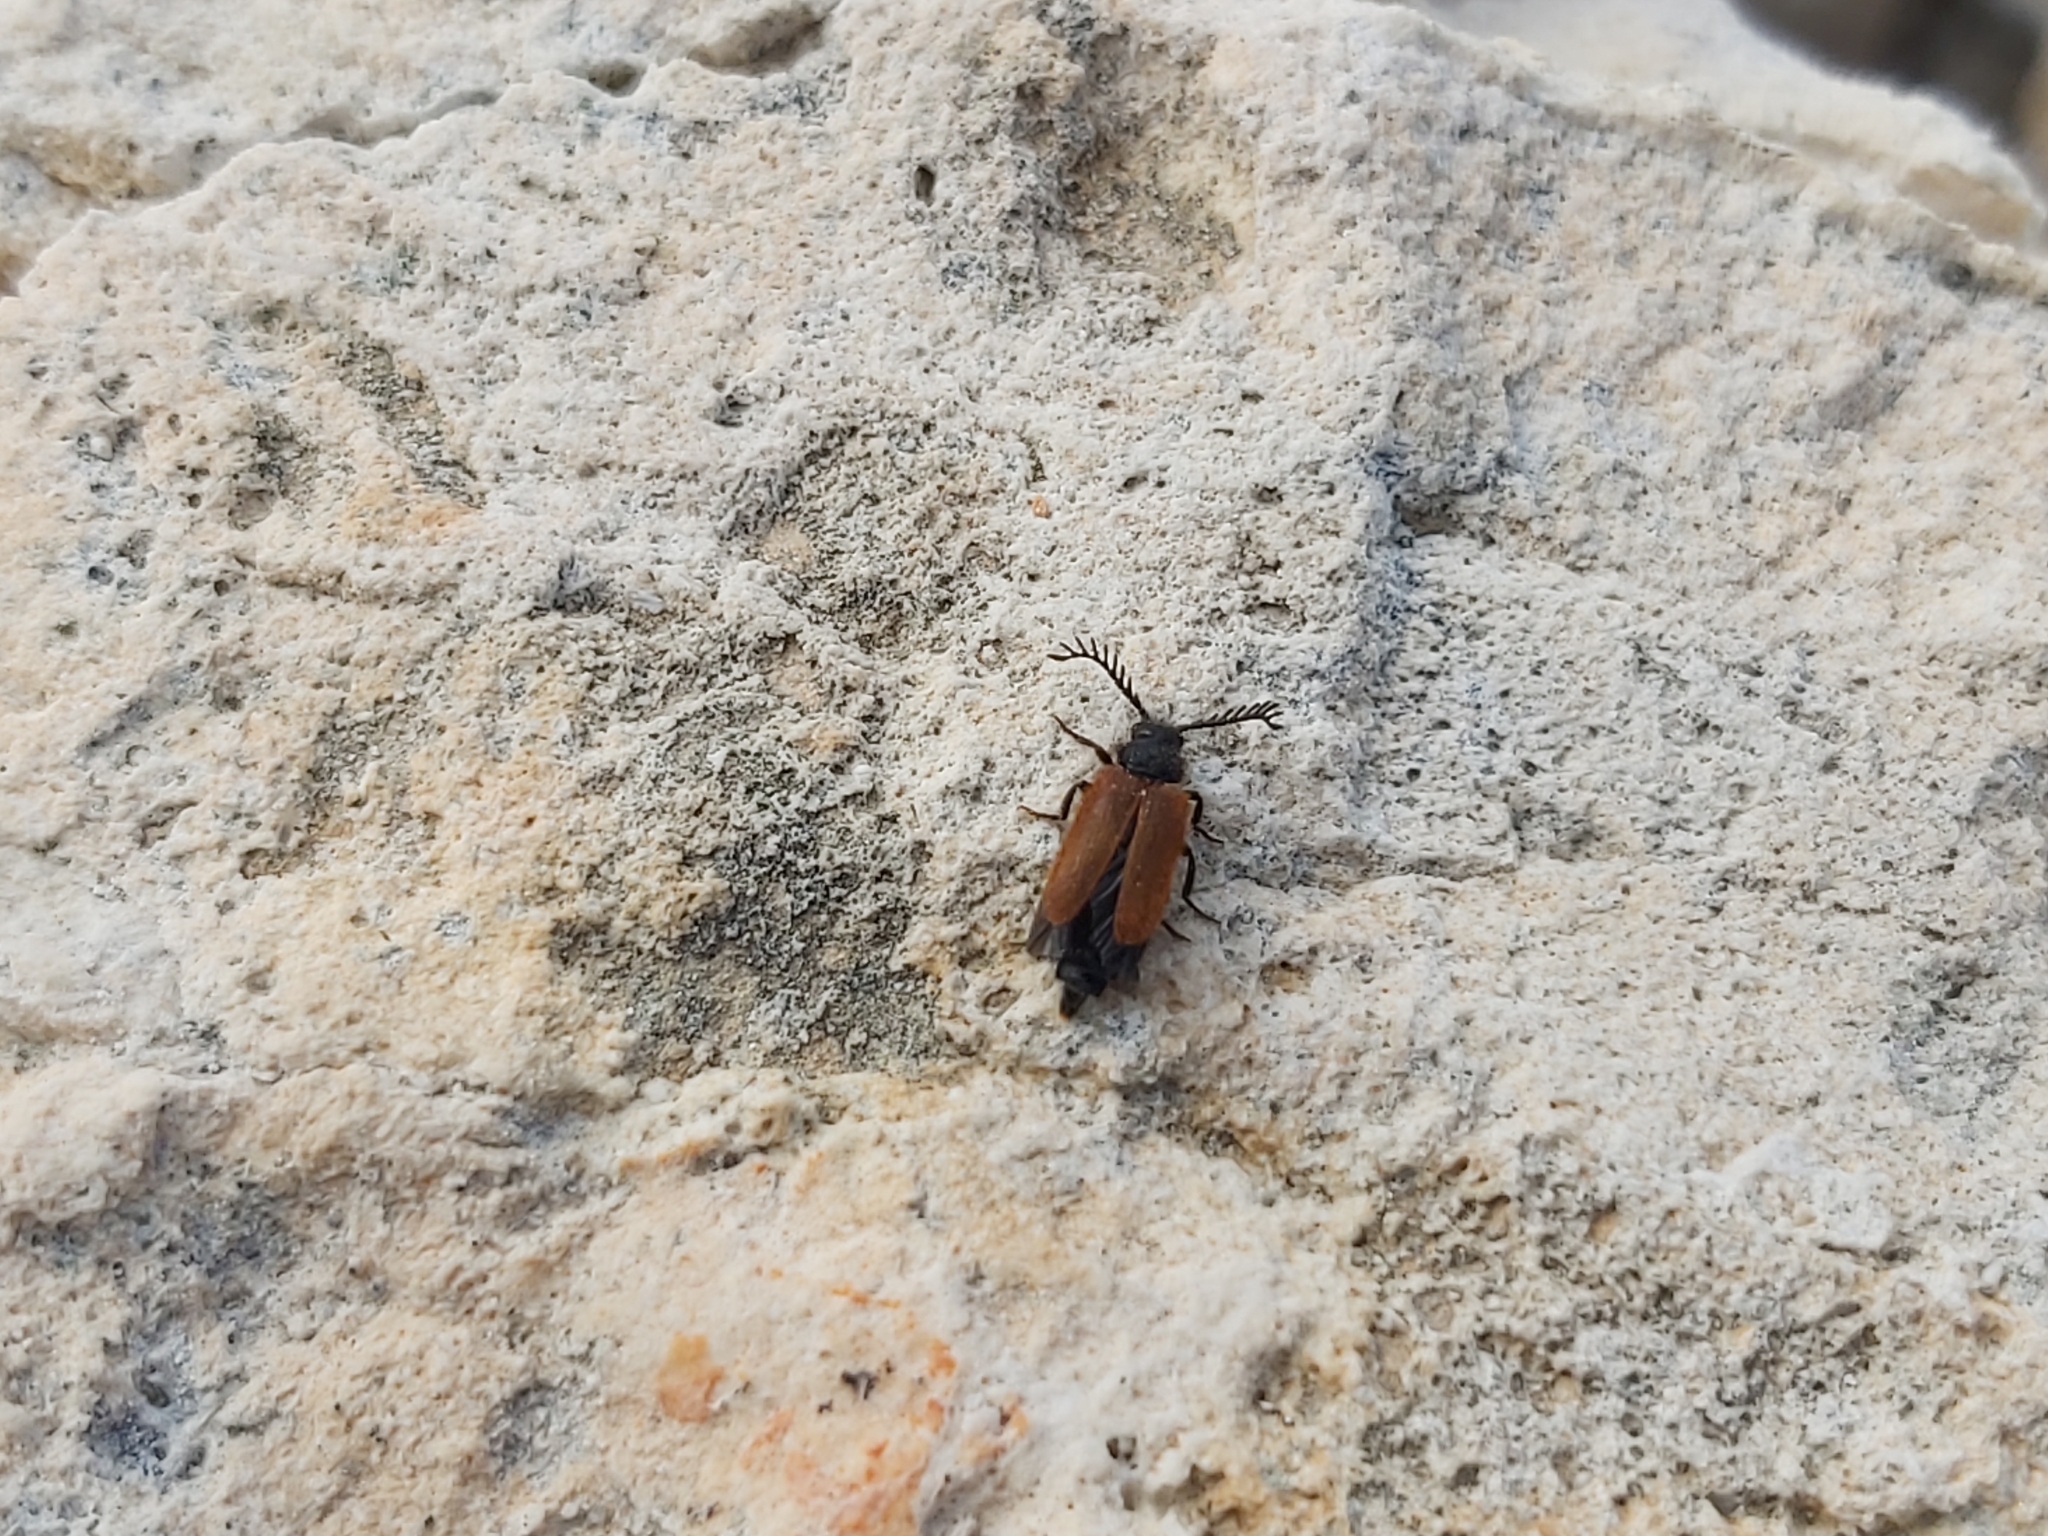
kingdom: Animalia
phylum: Arthropoda
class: Insecta
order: Coleoptera
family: Drilidae
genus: Drilus
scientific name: Drilus flavescens
